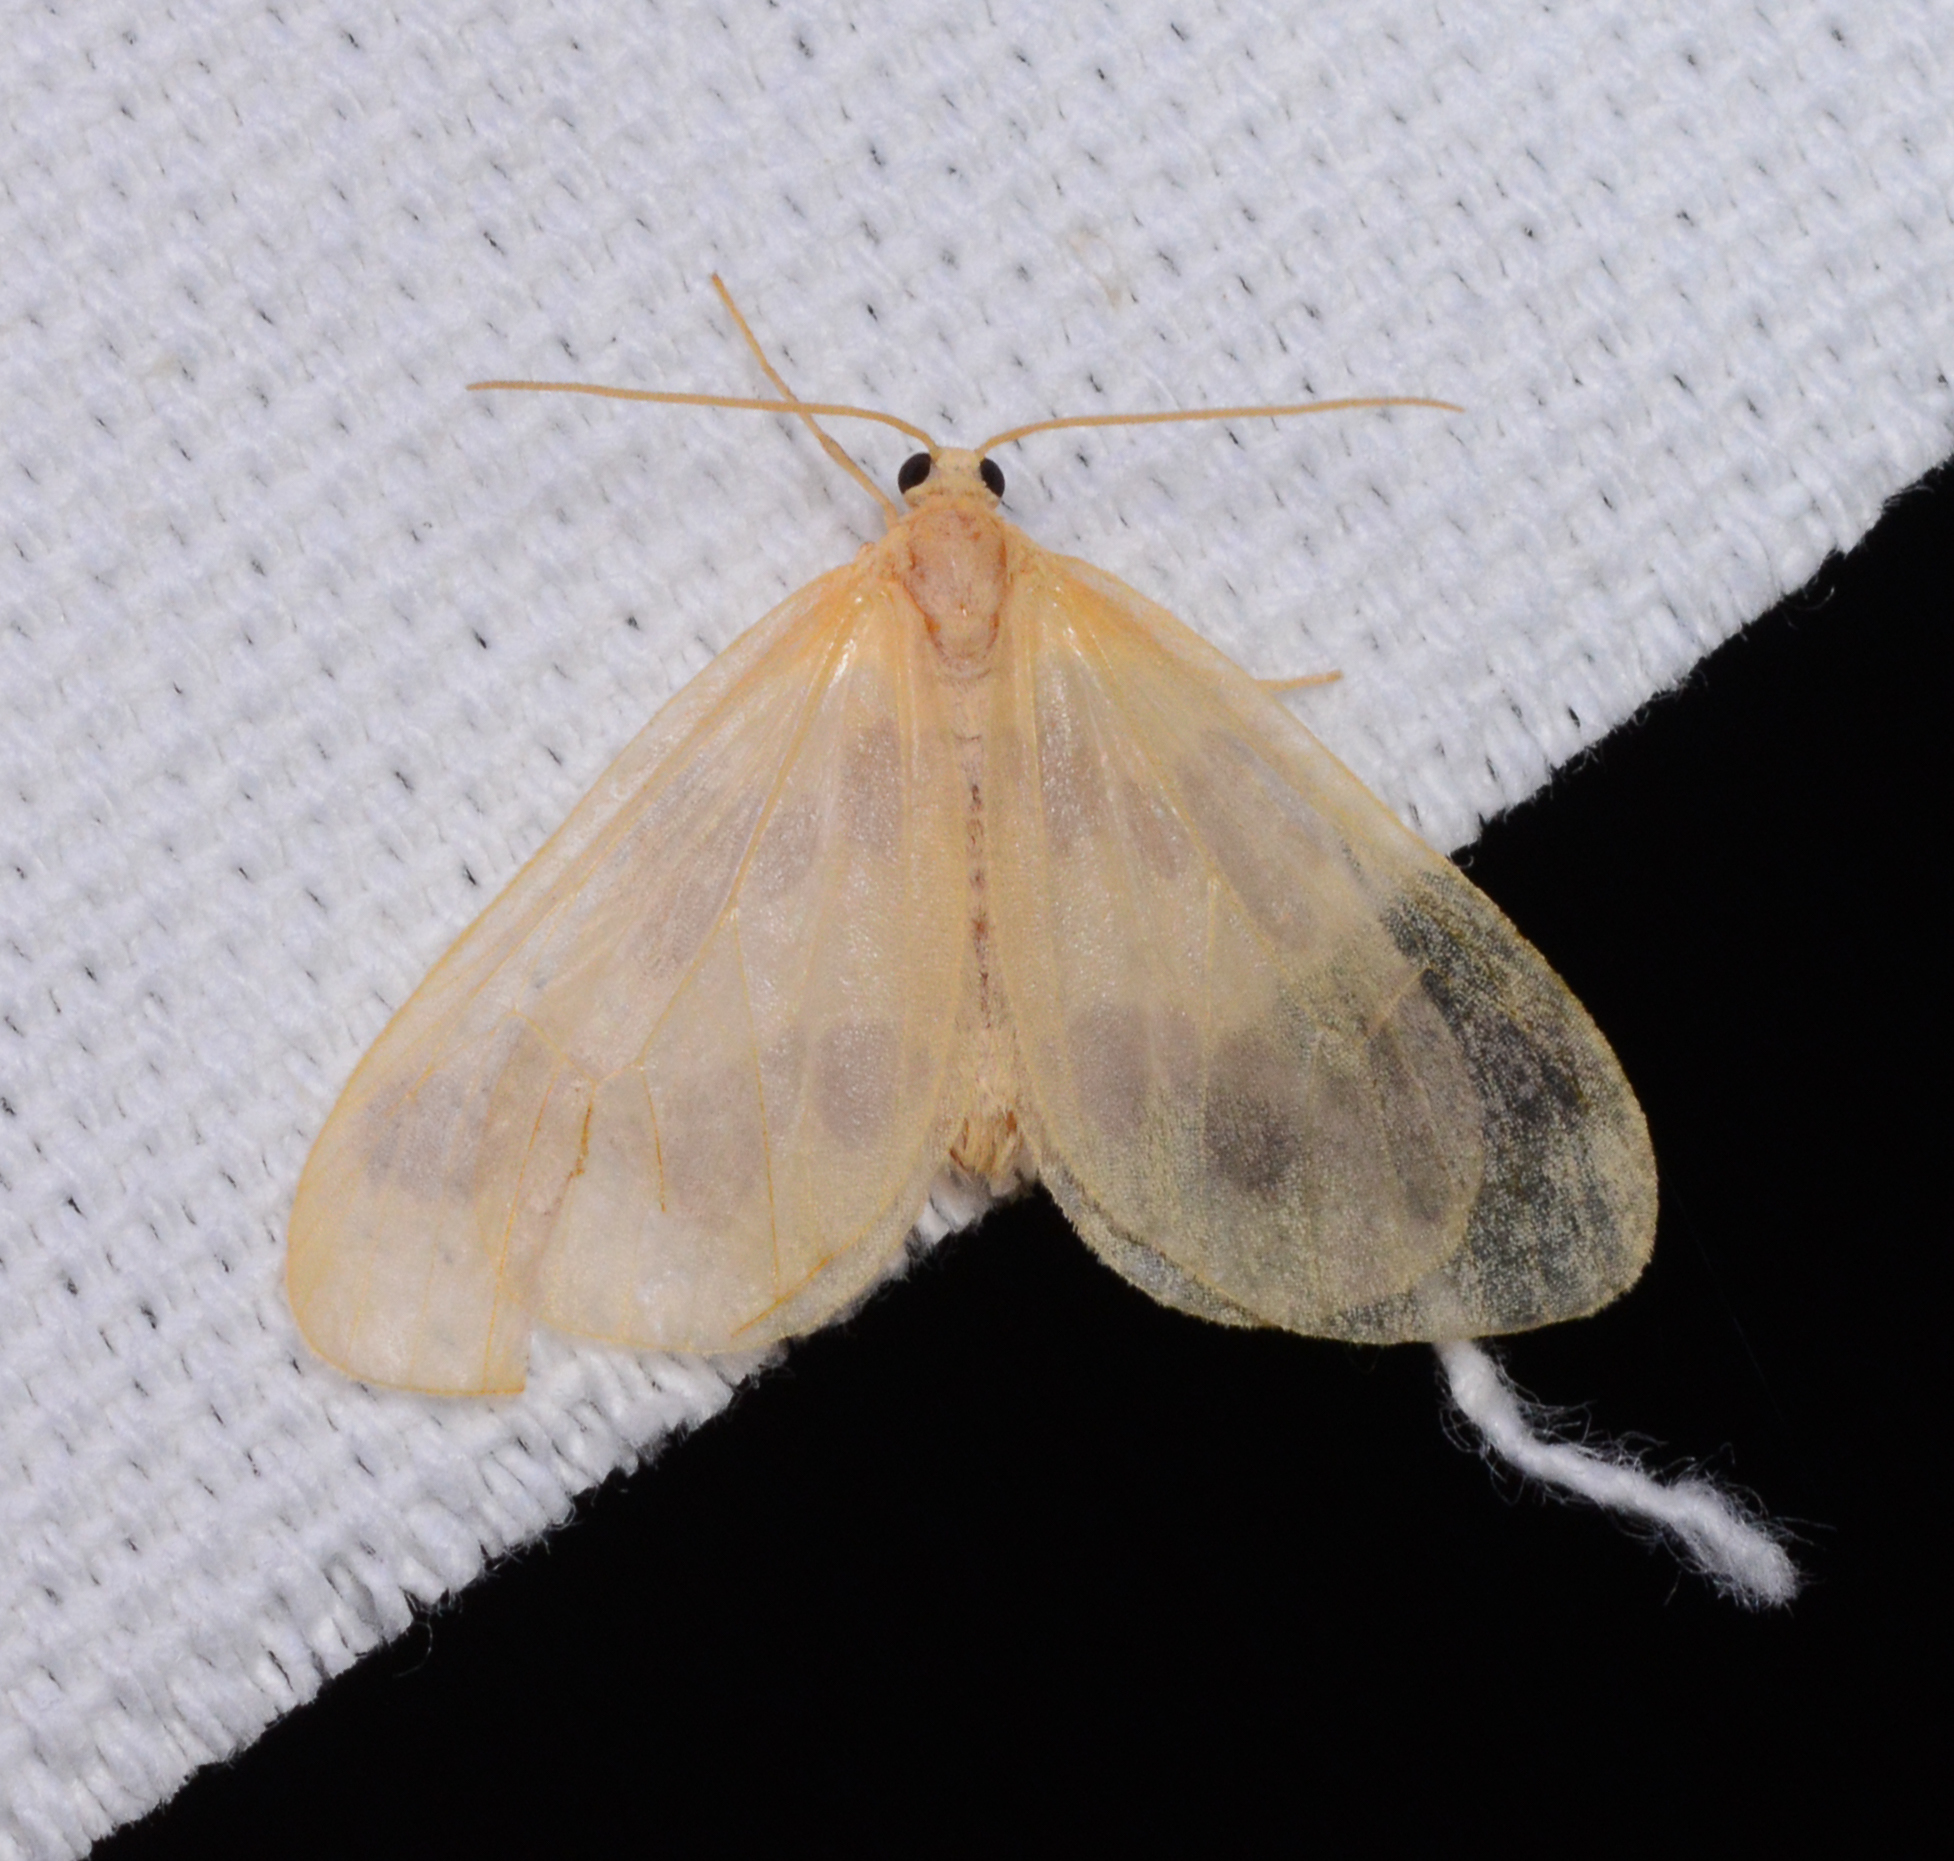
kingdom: Animalia
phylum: Arthropoda
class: Insecta
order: Lepidoptera
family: Geometridae
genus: Eubaphe
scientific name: Eubaphe mendica
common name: Beggar
